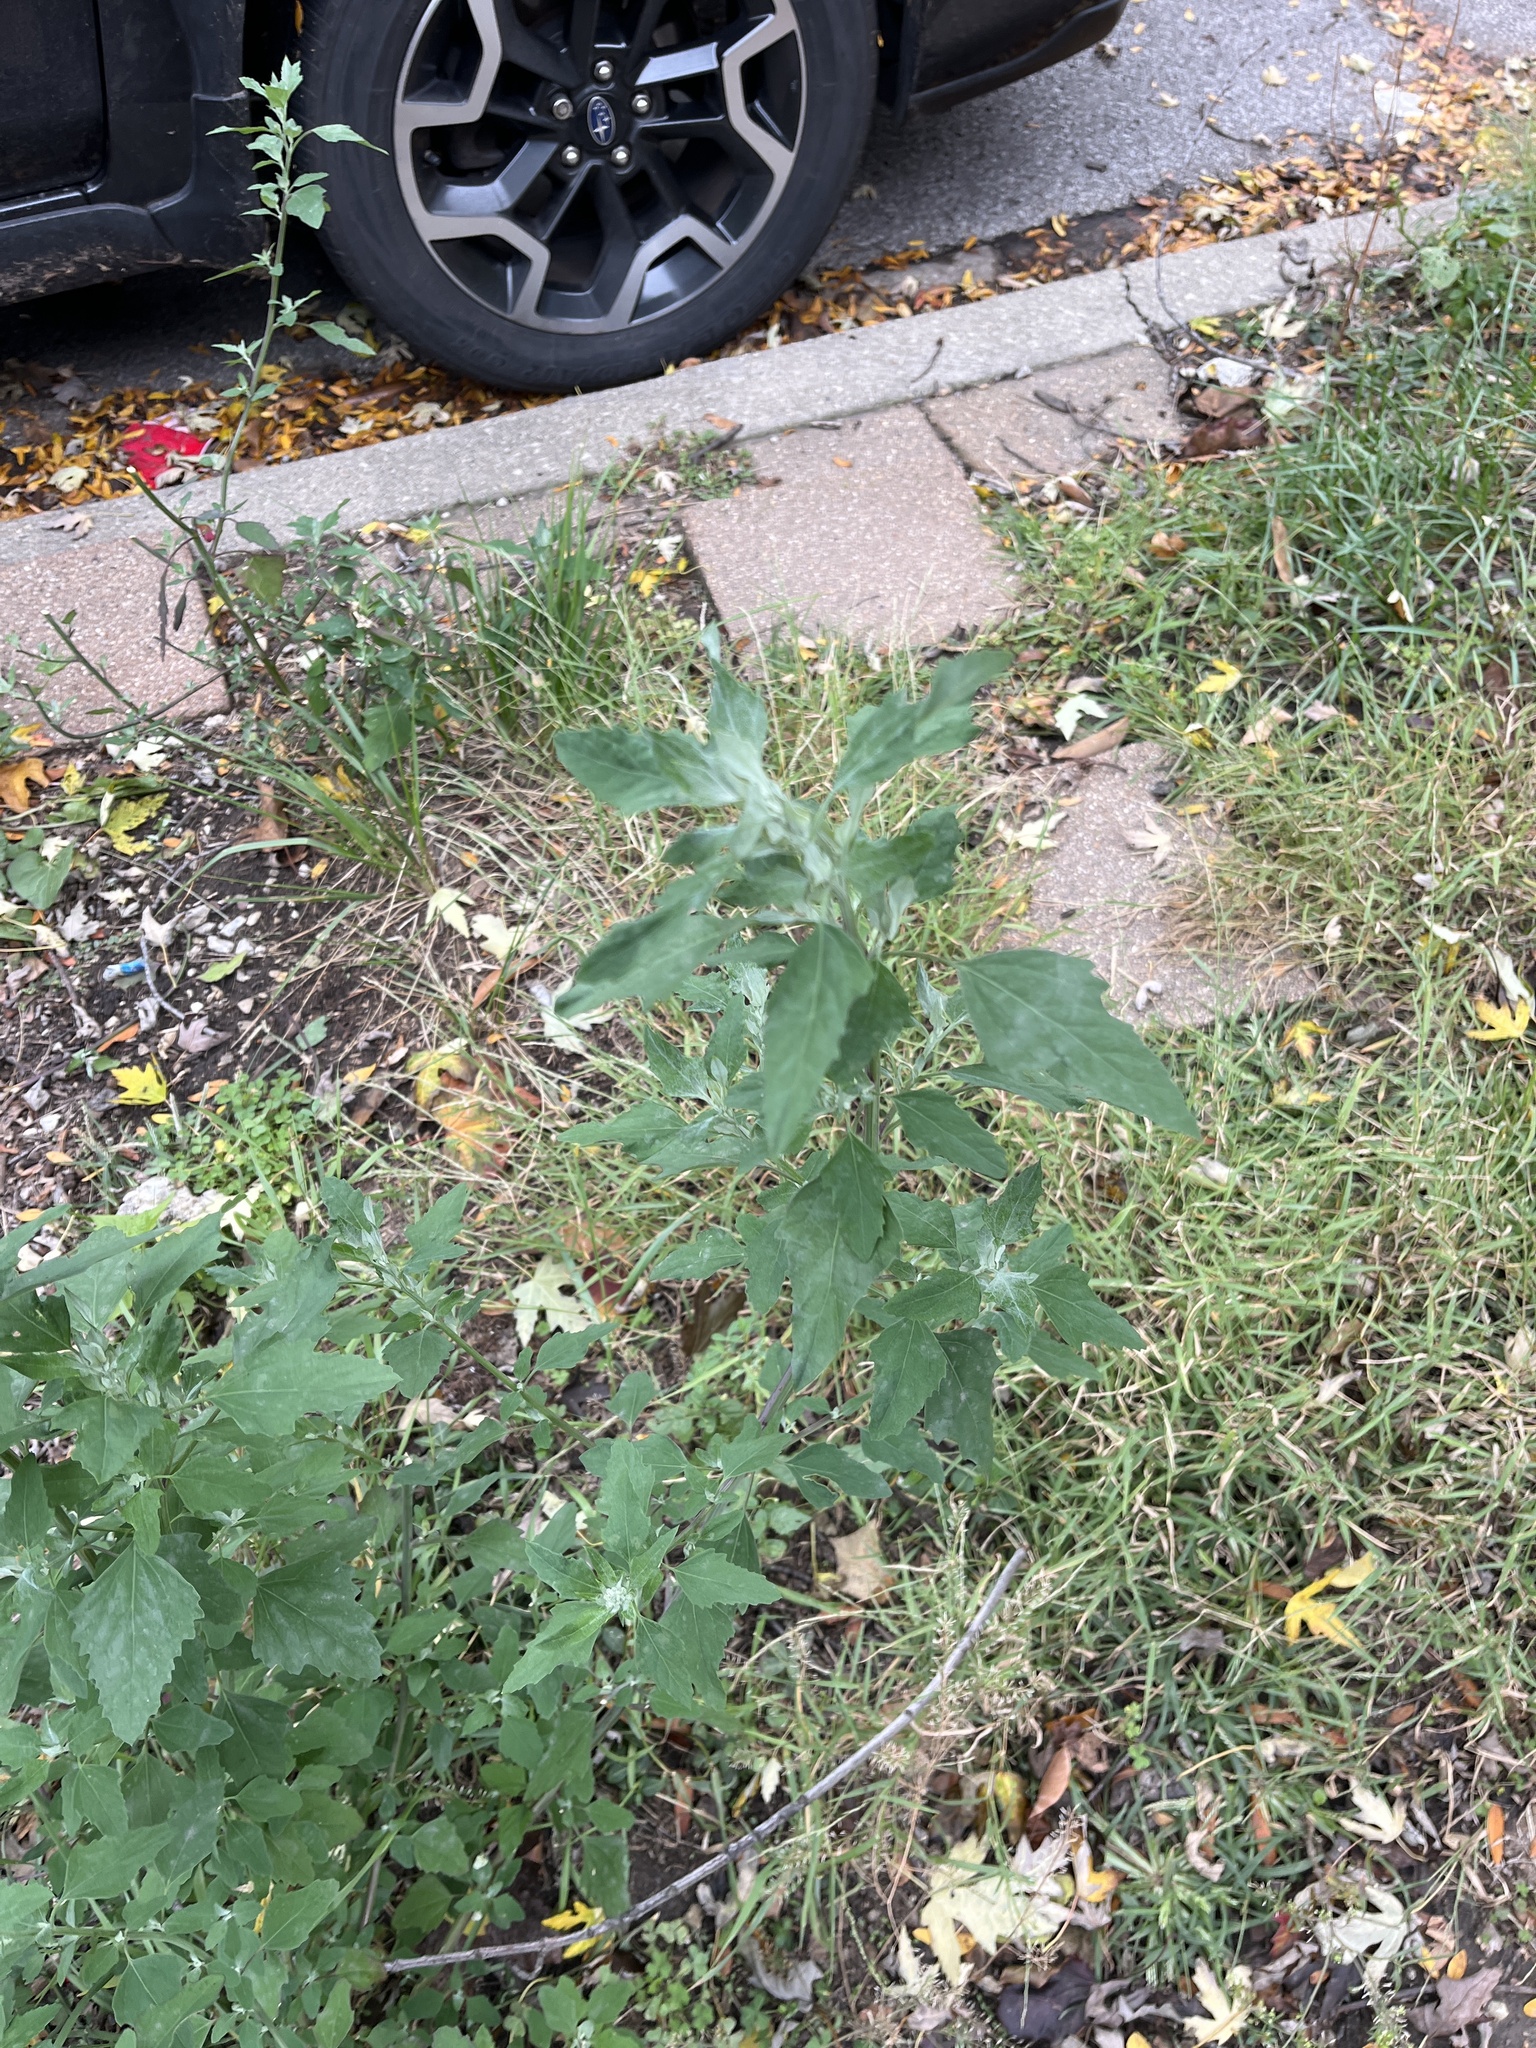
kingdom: Plantae
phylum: Tracheophyta
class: Magnoliopsida
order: Caryophyllales
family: Amaranthaceae
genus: Chenopodium
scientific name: Chenopodium album
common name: Fat-hen
